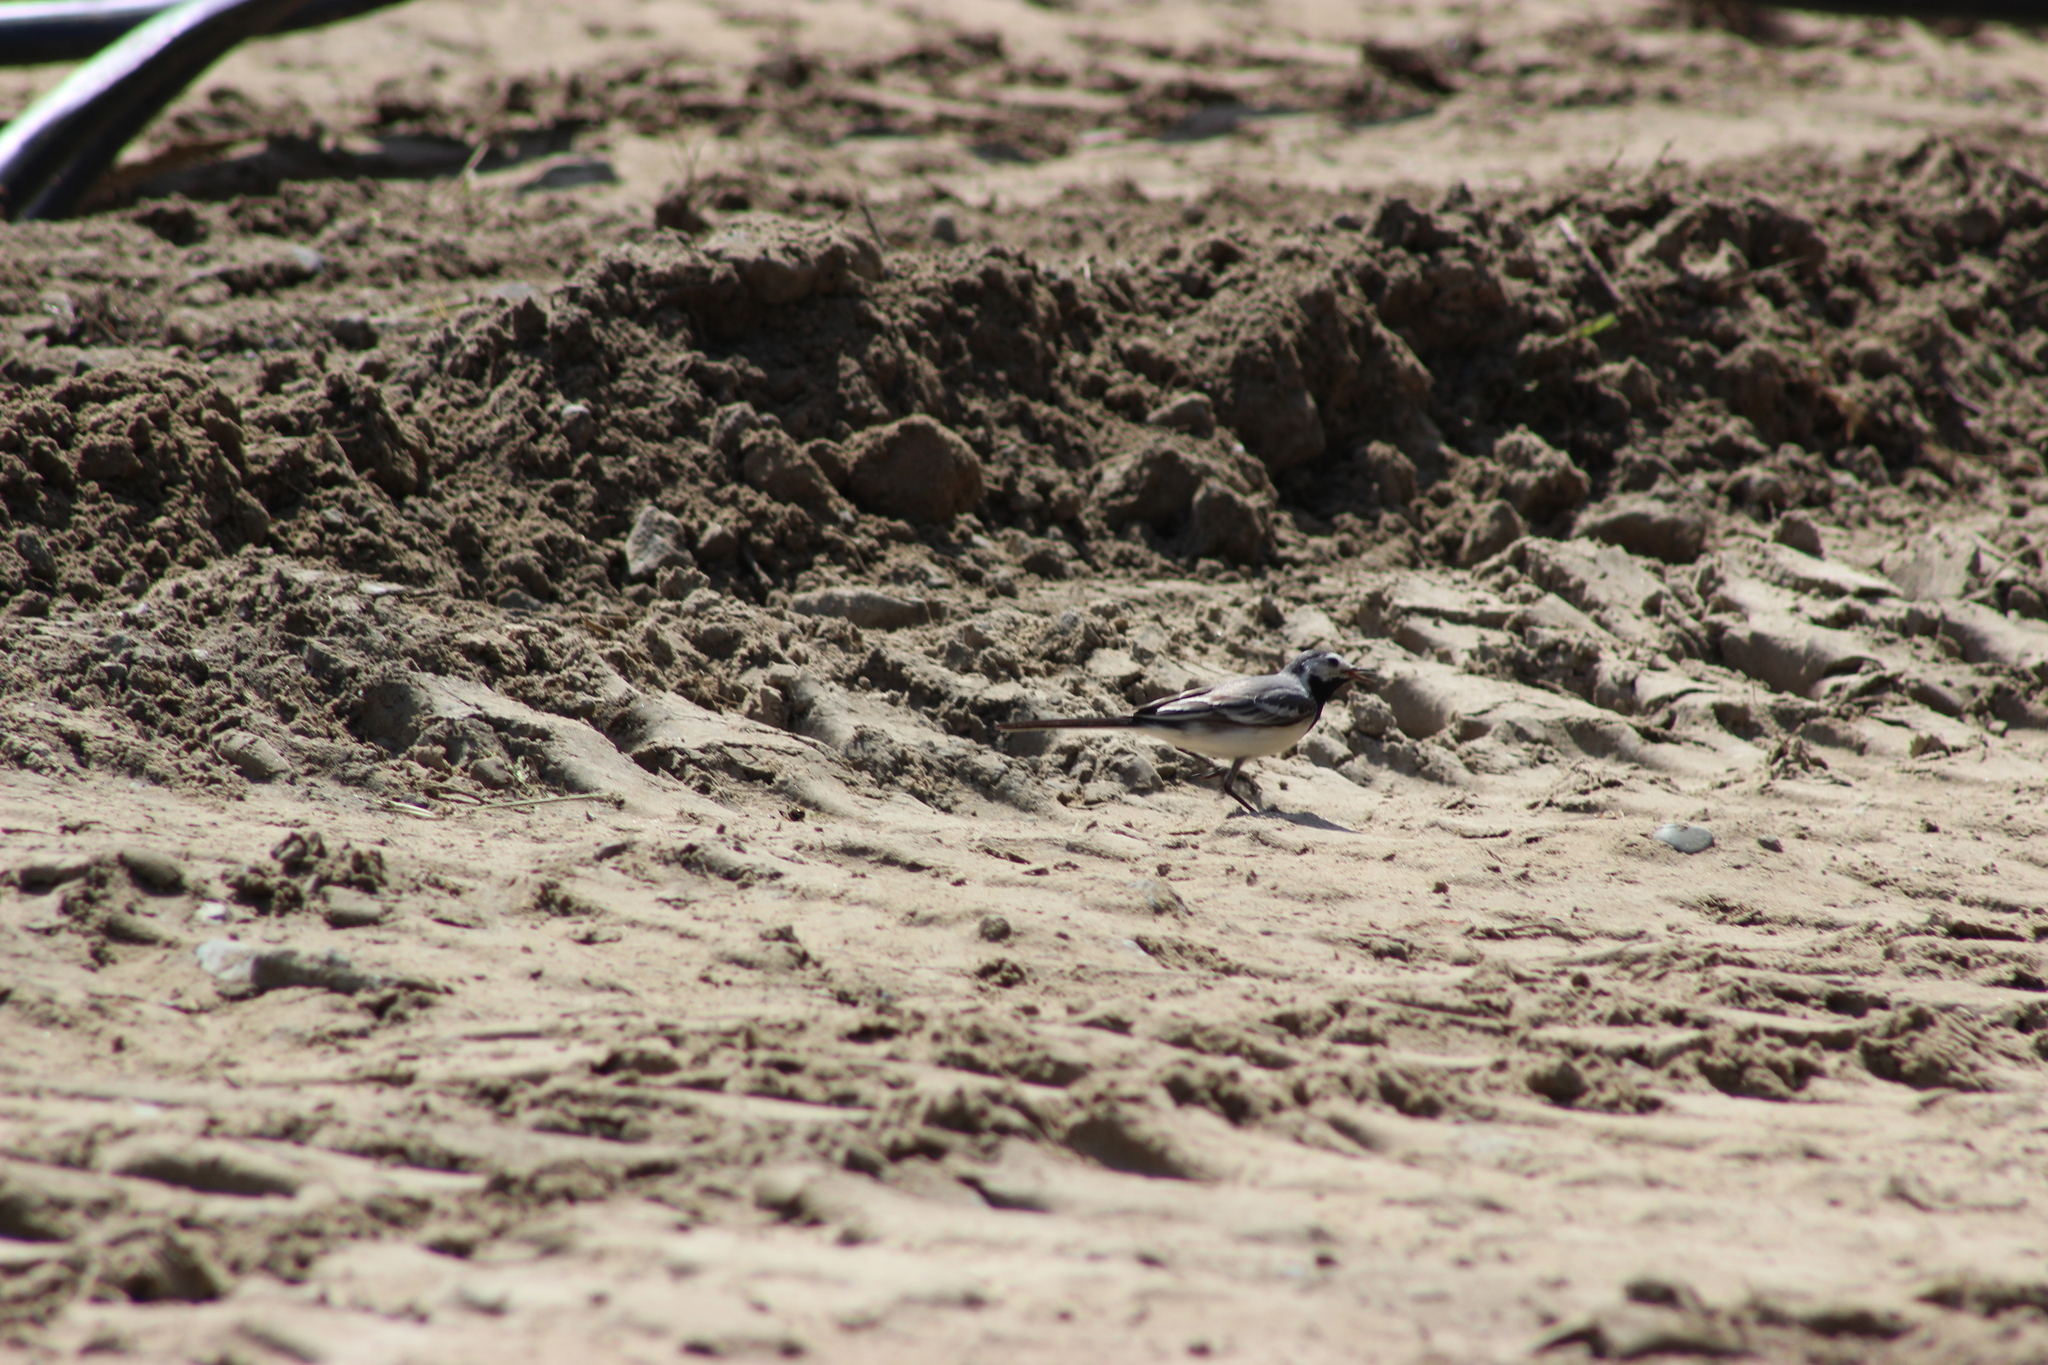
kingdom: Animalia
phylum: Chordata
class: Aves
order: Passeriformes
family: Motacillidae
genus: Motacilla
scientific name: Motacilla alba
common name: White wagtail
